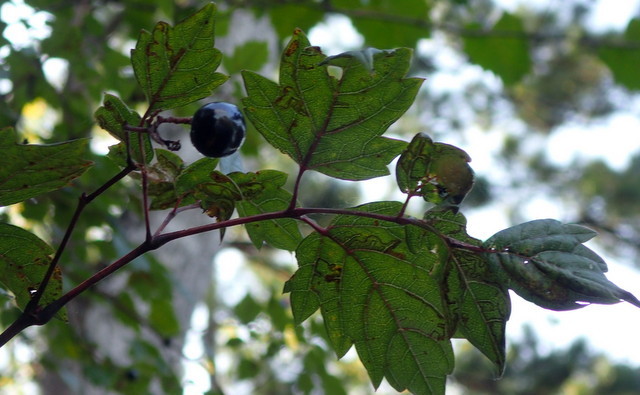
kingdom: Plantae
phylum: Tracheophyta
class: Magnoliopsida
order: Vitales
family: Vitaceae
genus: Nekemias
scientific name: Nekemias arborea
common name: Peppervine
